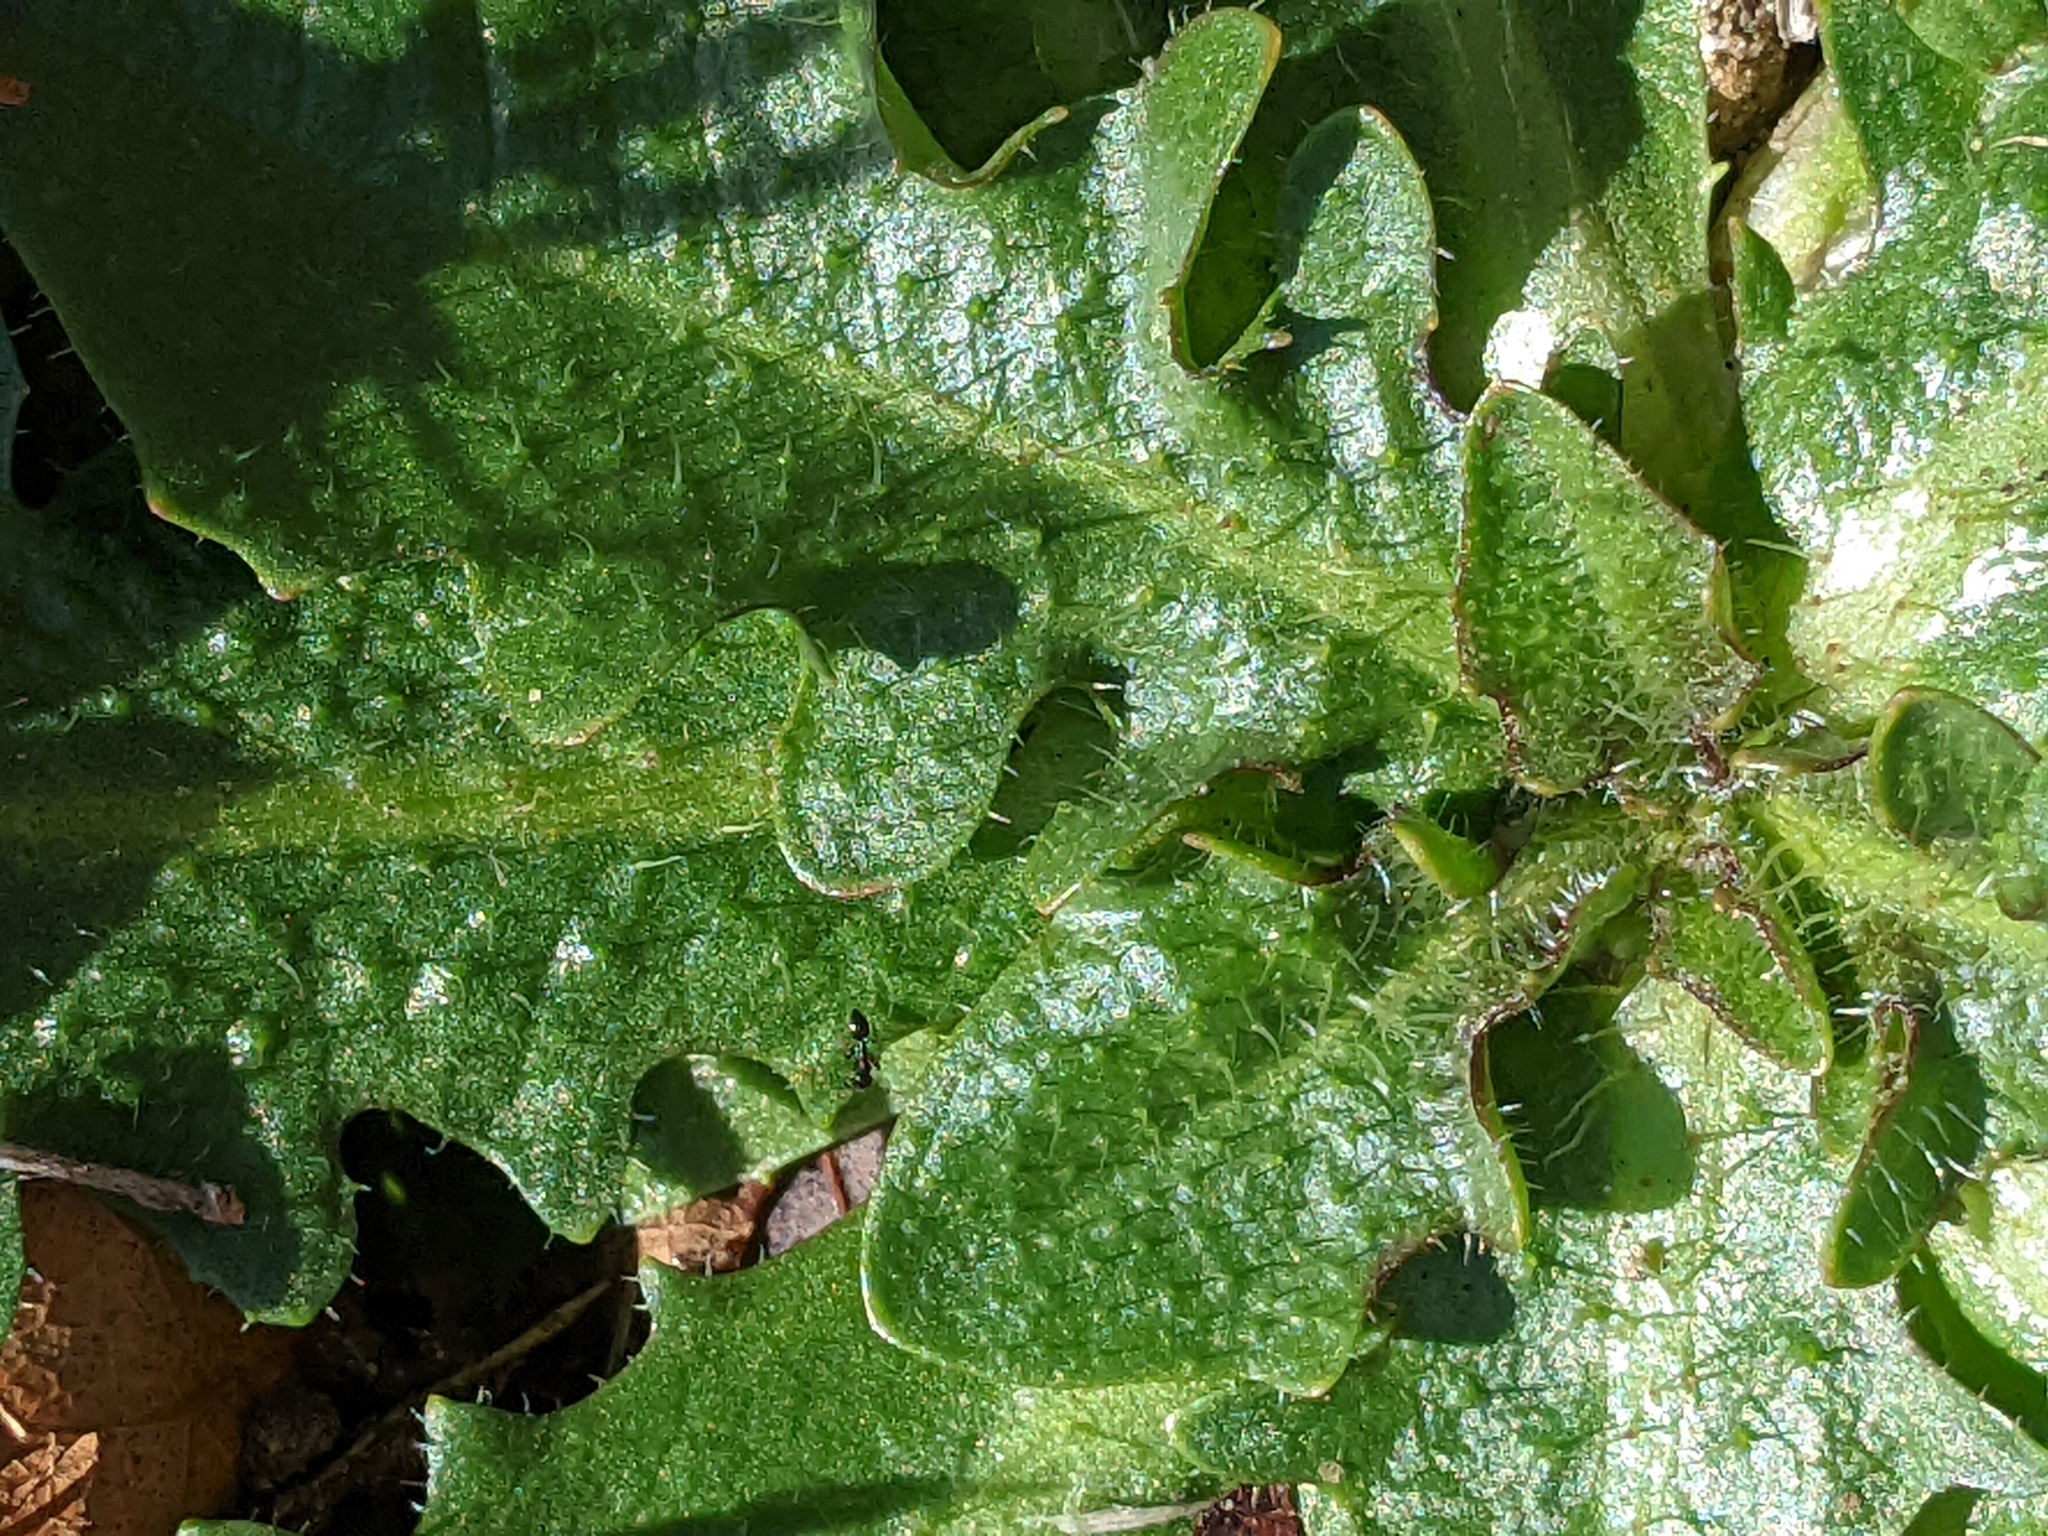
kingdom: Plantae
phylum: Tracheophyta
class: Magnoliopsida
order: Asterales
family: Asteraceae
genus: Hypochaeris
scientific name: Hypochaeris radicata
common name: Flatweed
